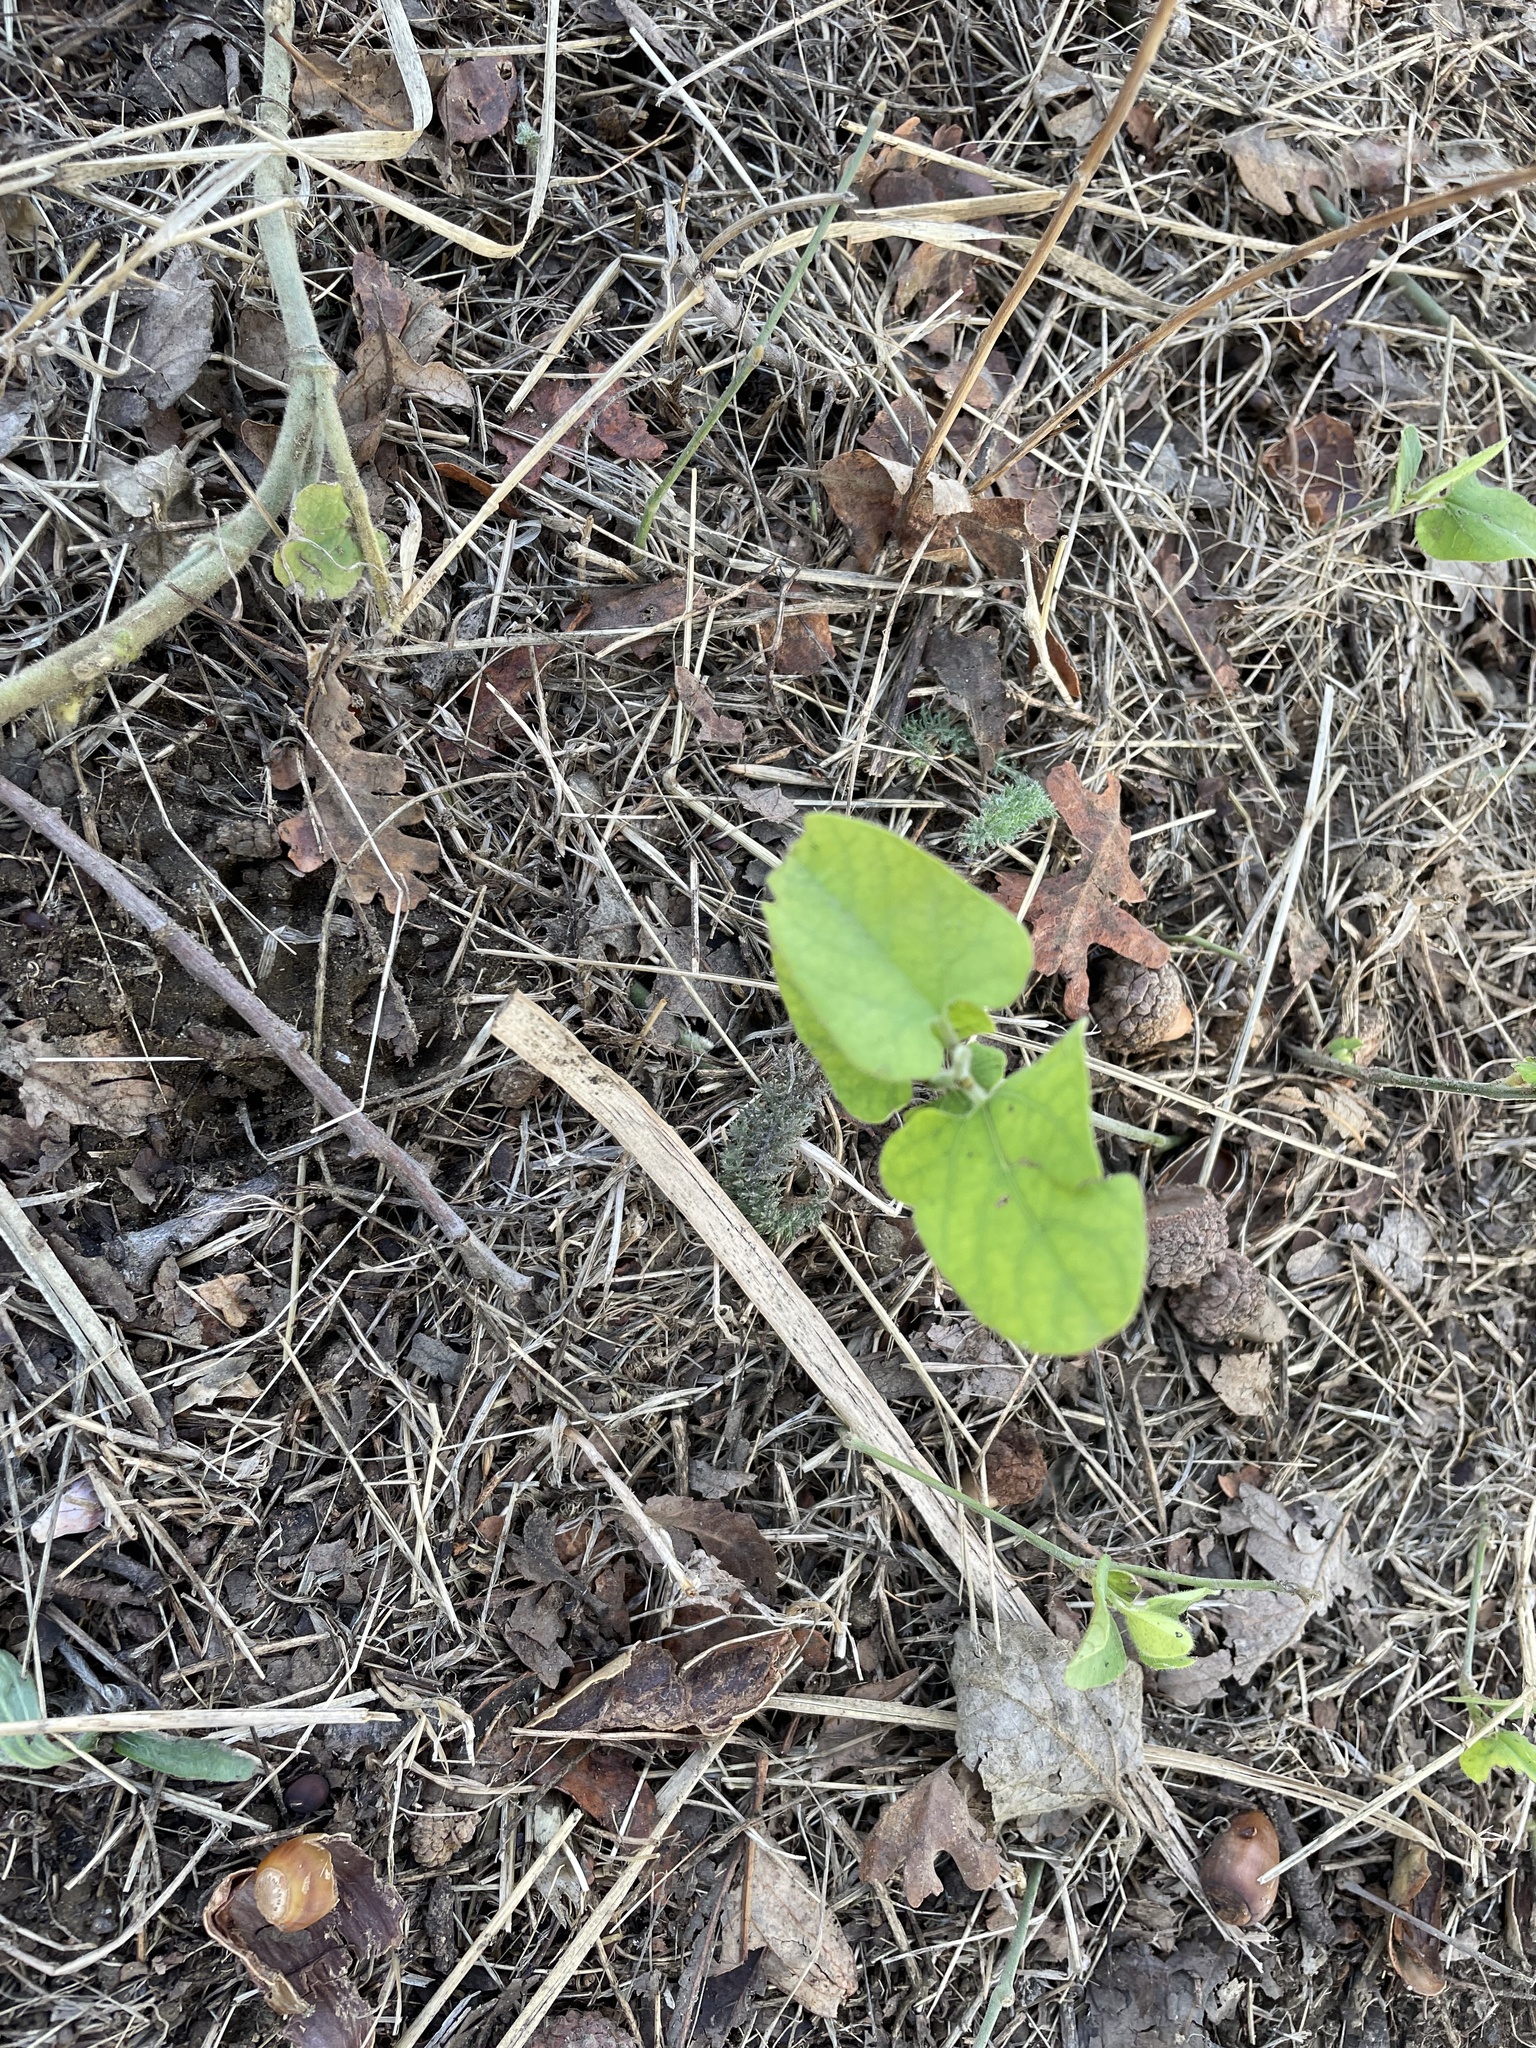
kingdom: Plantae
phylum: Tracheophyta
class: Magnoliopsida
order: Piperales
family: Aristolochiaceae
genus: Isotrema
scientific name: Isotrema californicum
